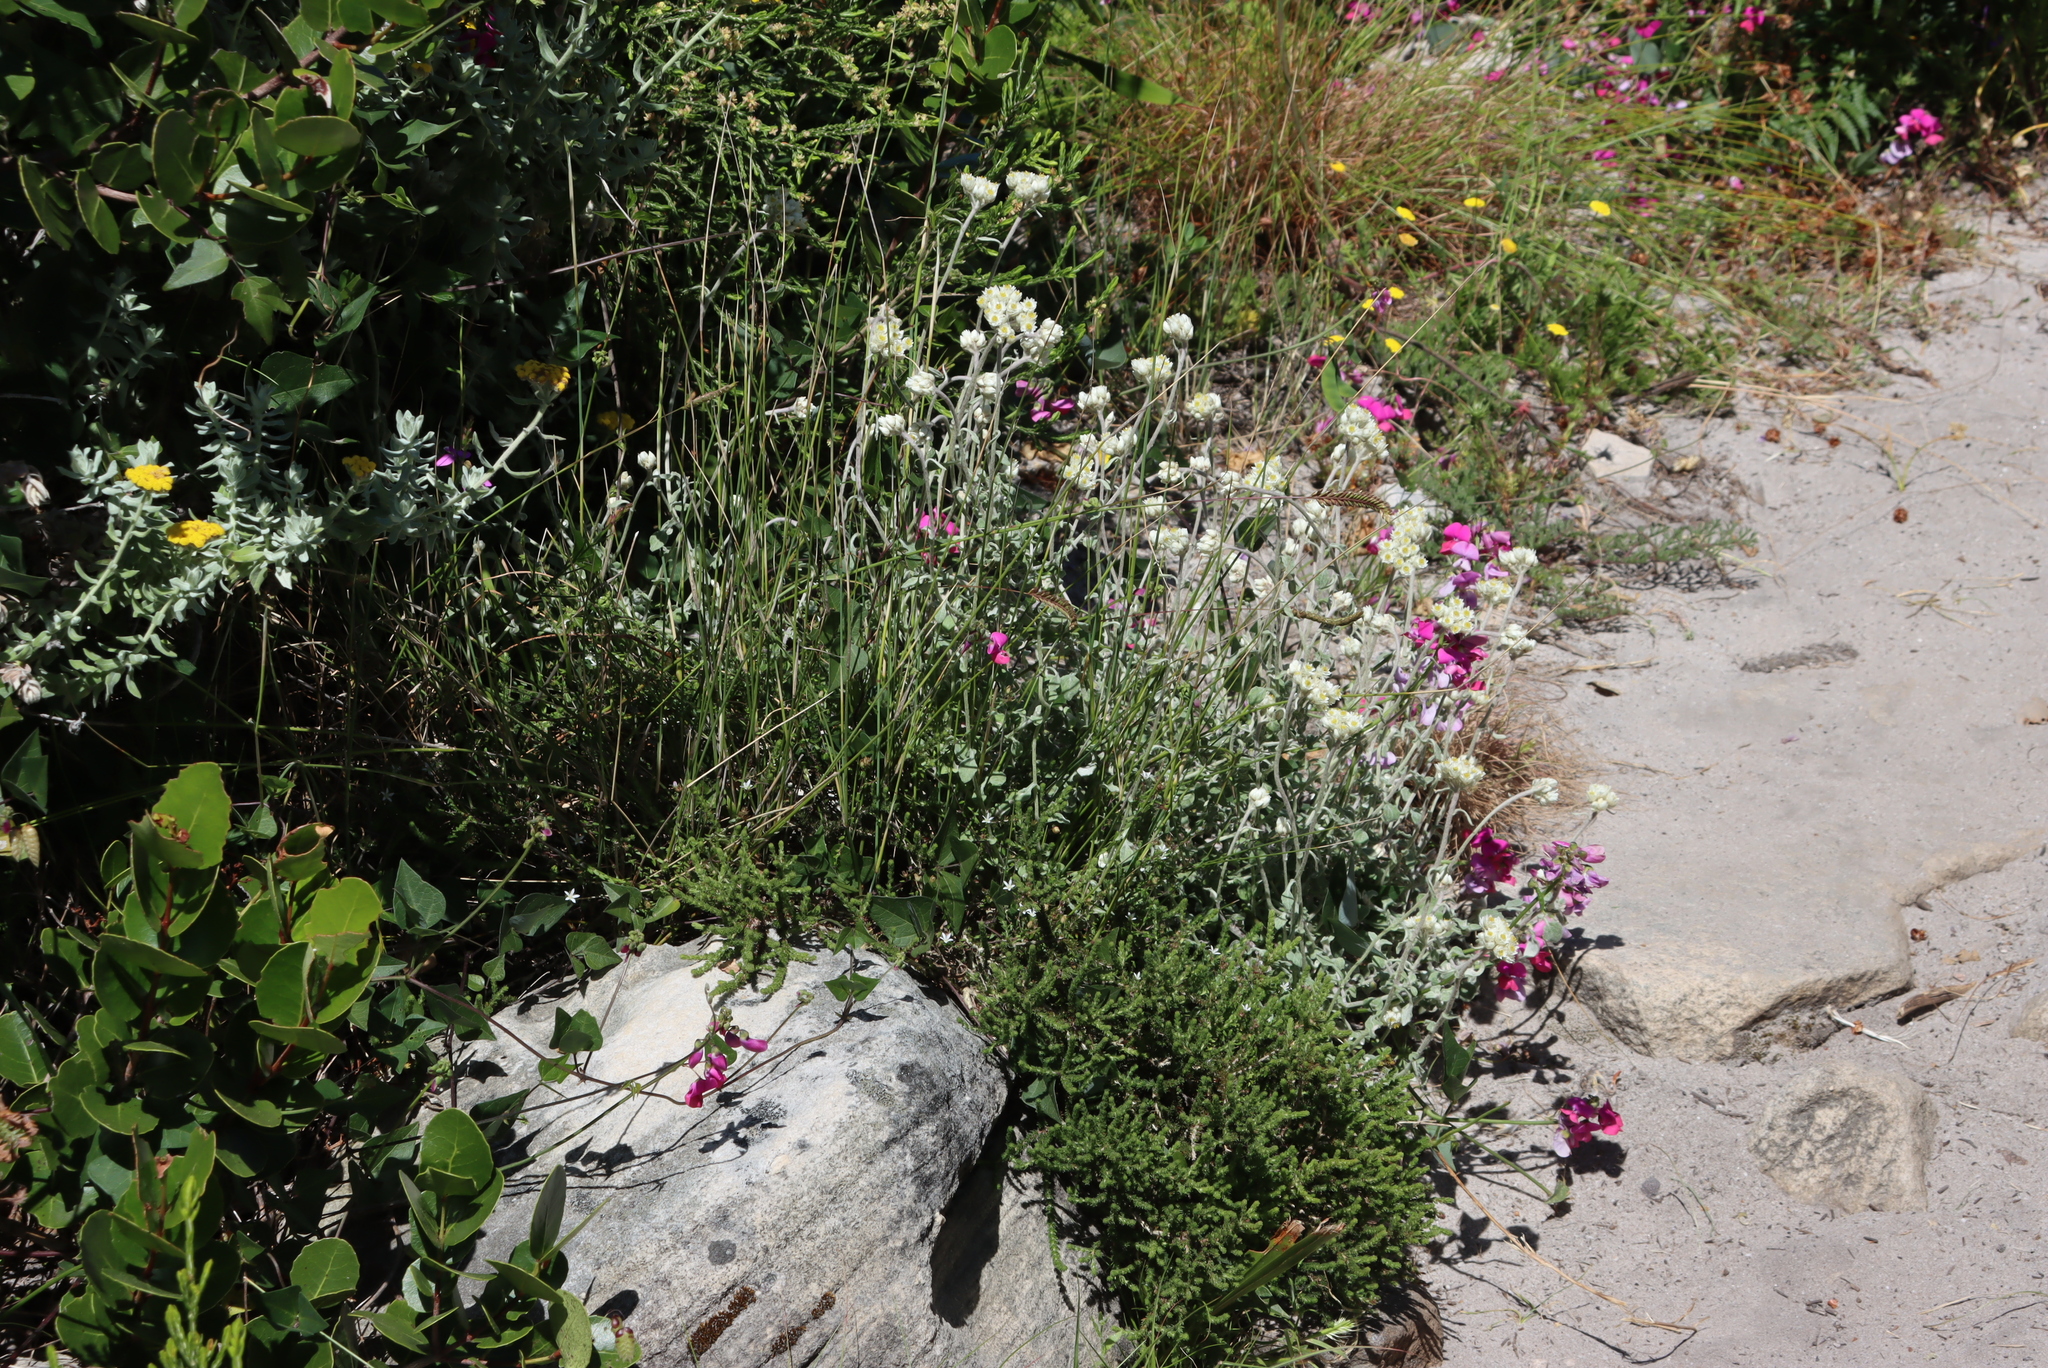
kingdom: Plantae
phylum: Tracheophyta
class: Magnoliopsida
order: Fabales
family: Fabaceae
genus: Dipogon
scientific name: Dipogon lignosus
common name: Okie bean
